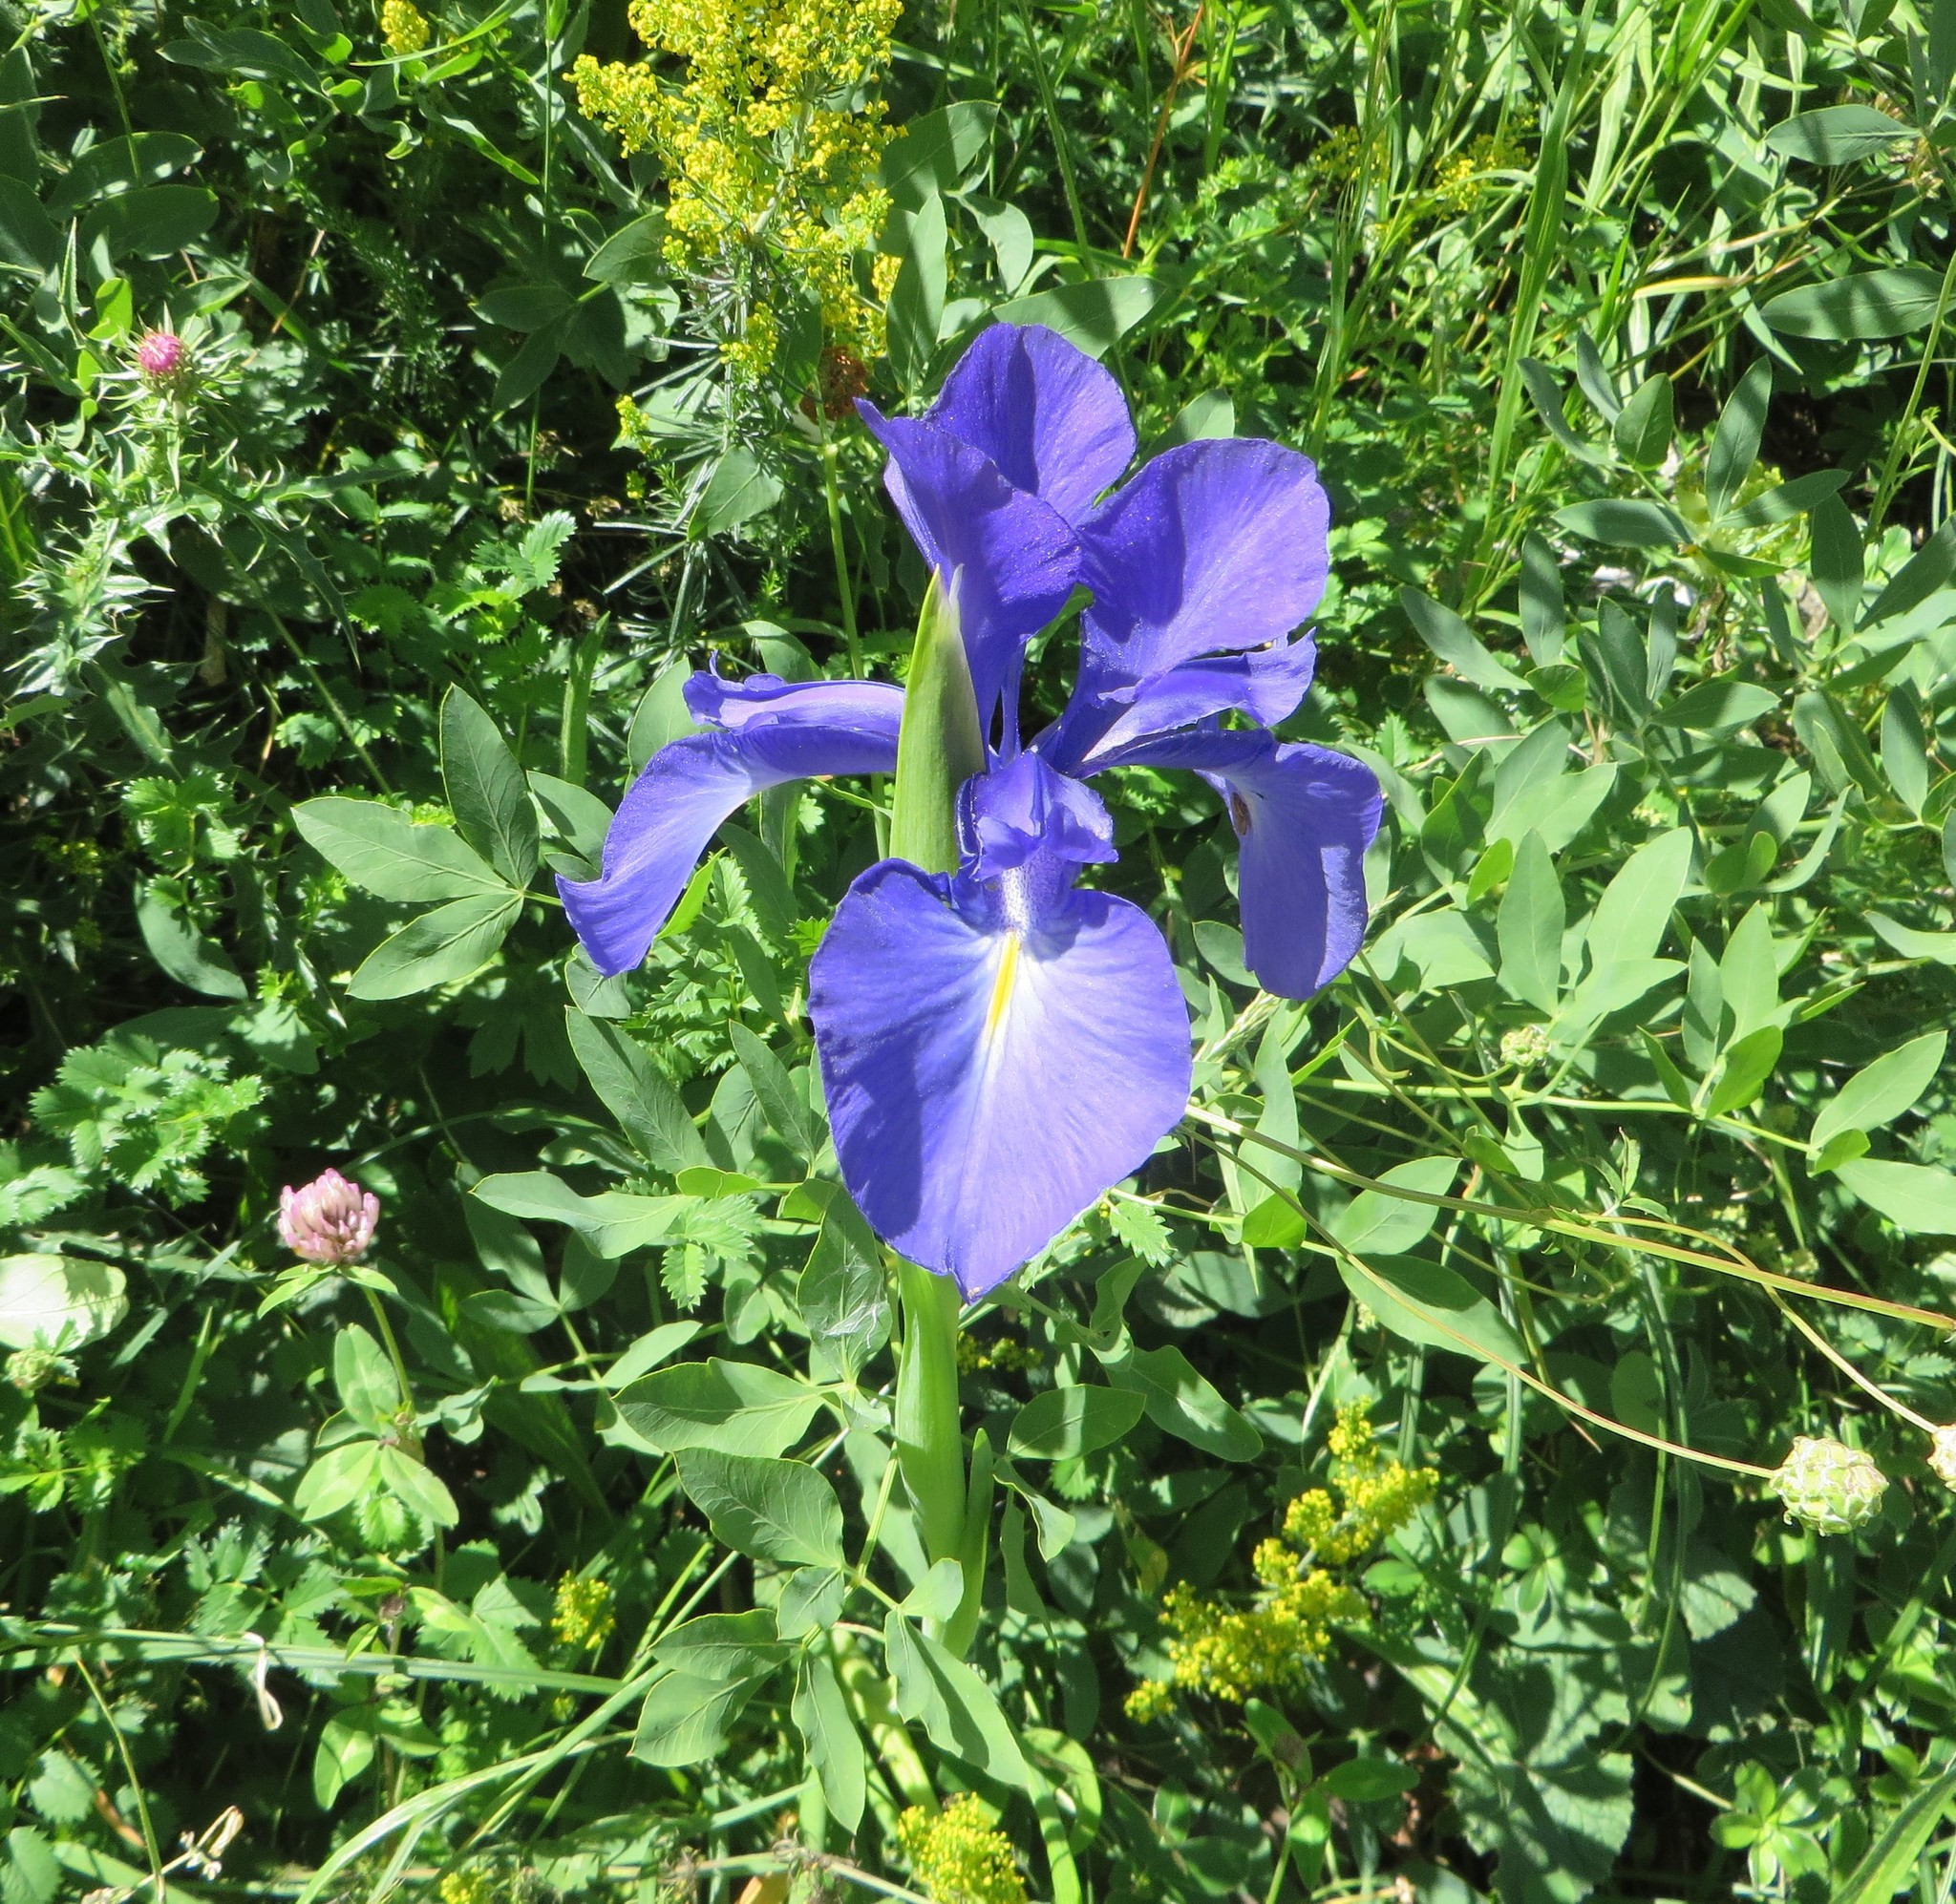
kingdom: Plantae
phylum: Tracheophyta
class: Liliopsida
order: Asparagales
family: Iridaceae
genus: Iris
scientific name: Iris
